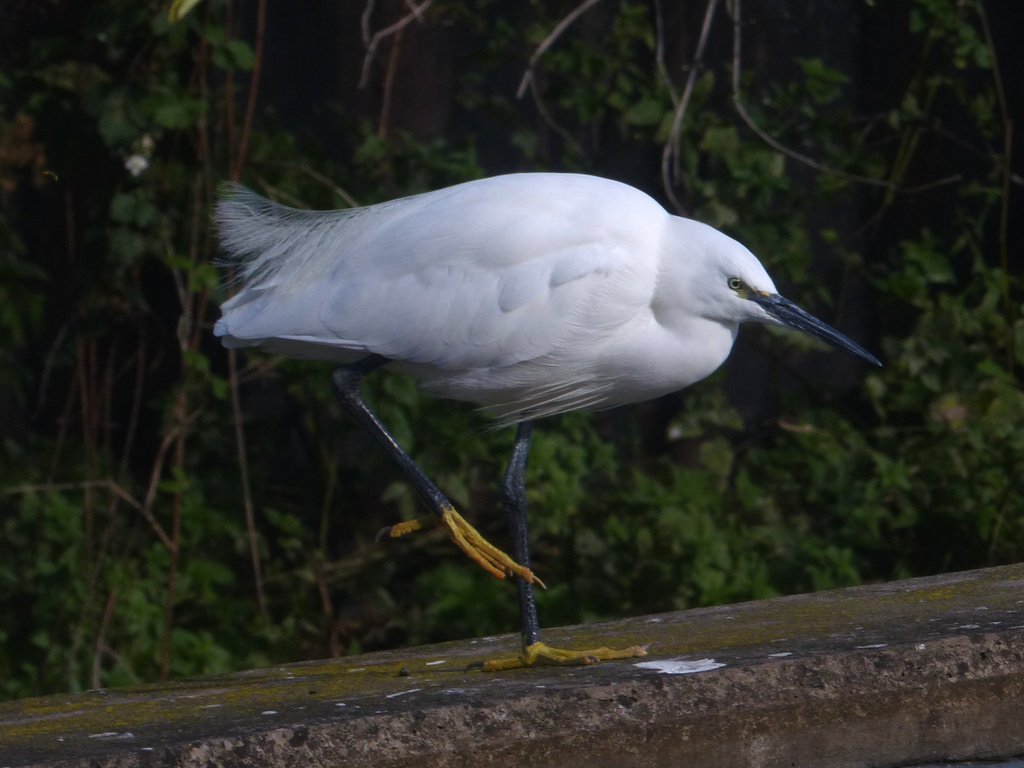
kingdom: Animalia
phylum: Chordata
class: Aves
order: Pelecaniformes
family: Ardeidae
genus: Egretta
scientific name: Egretta garzetta
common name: Little egret
